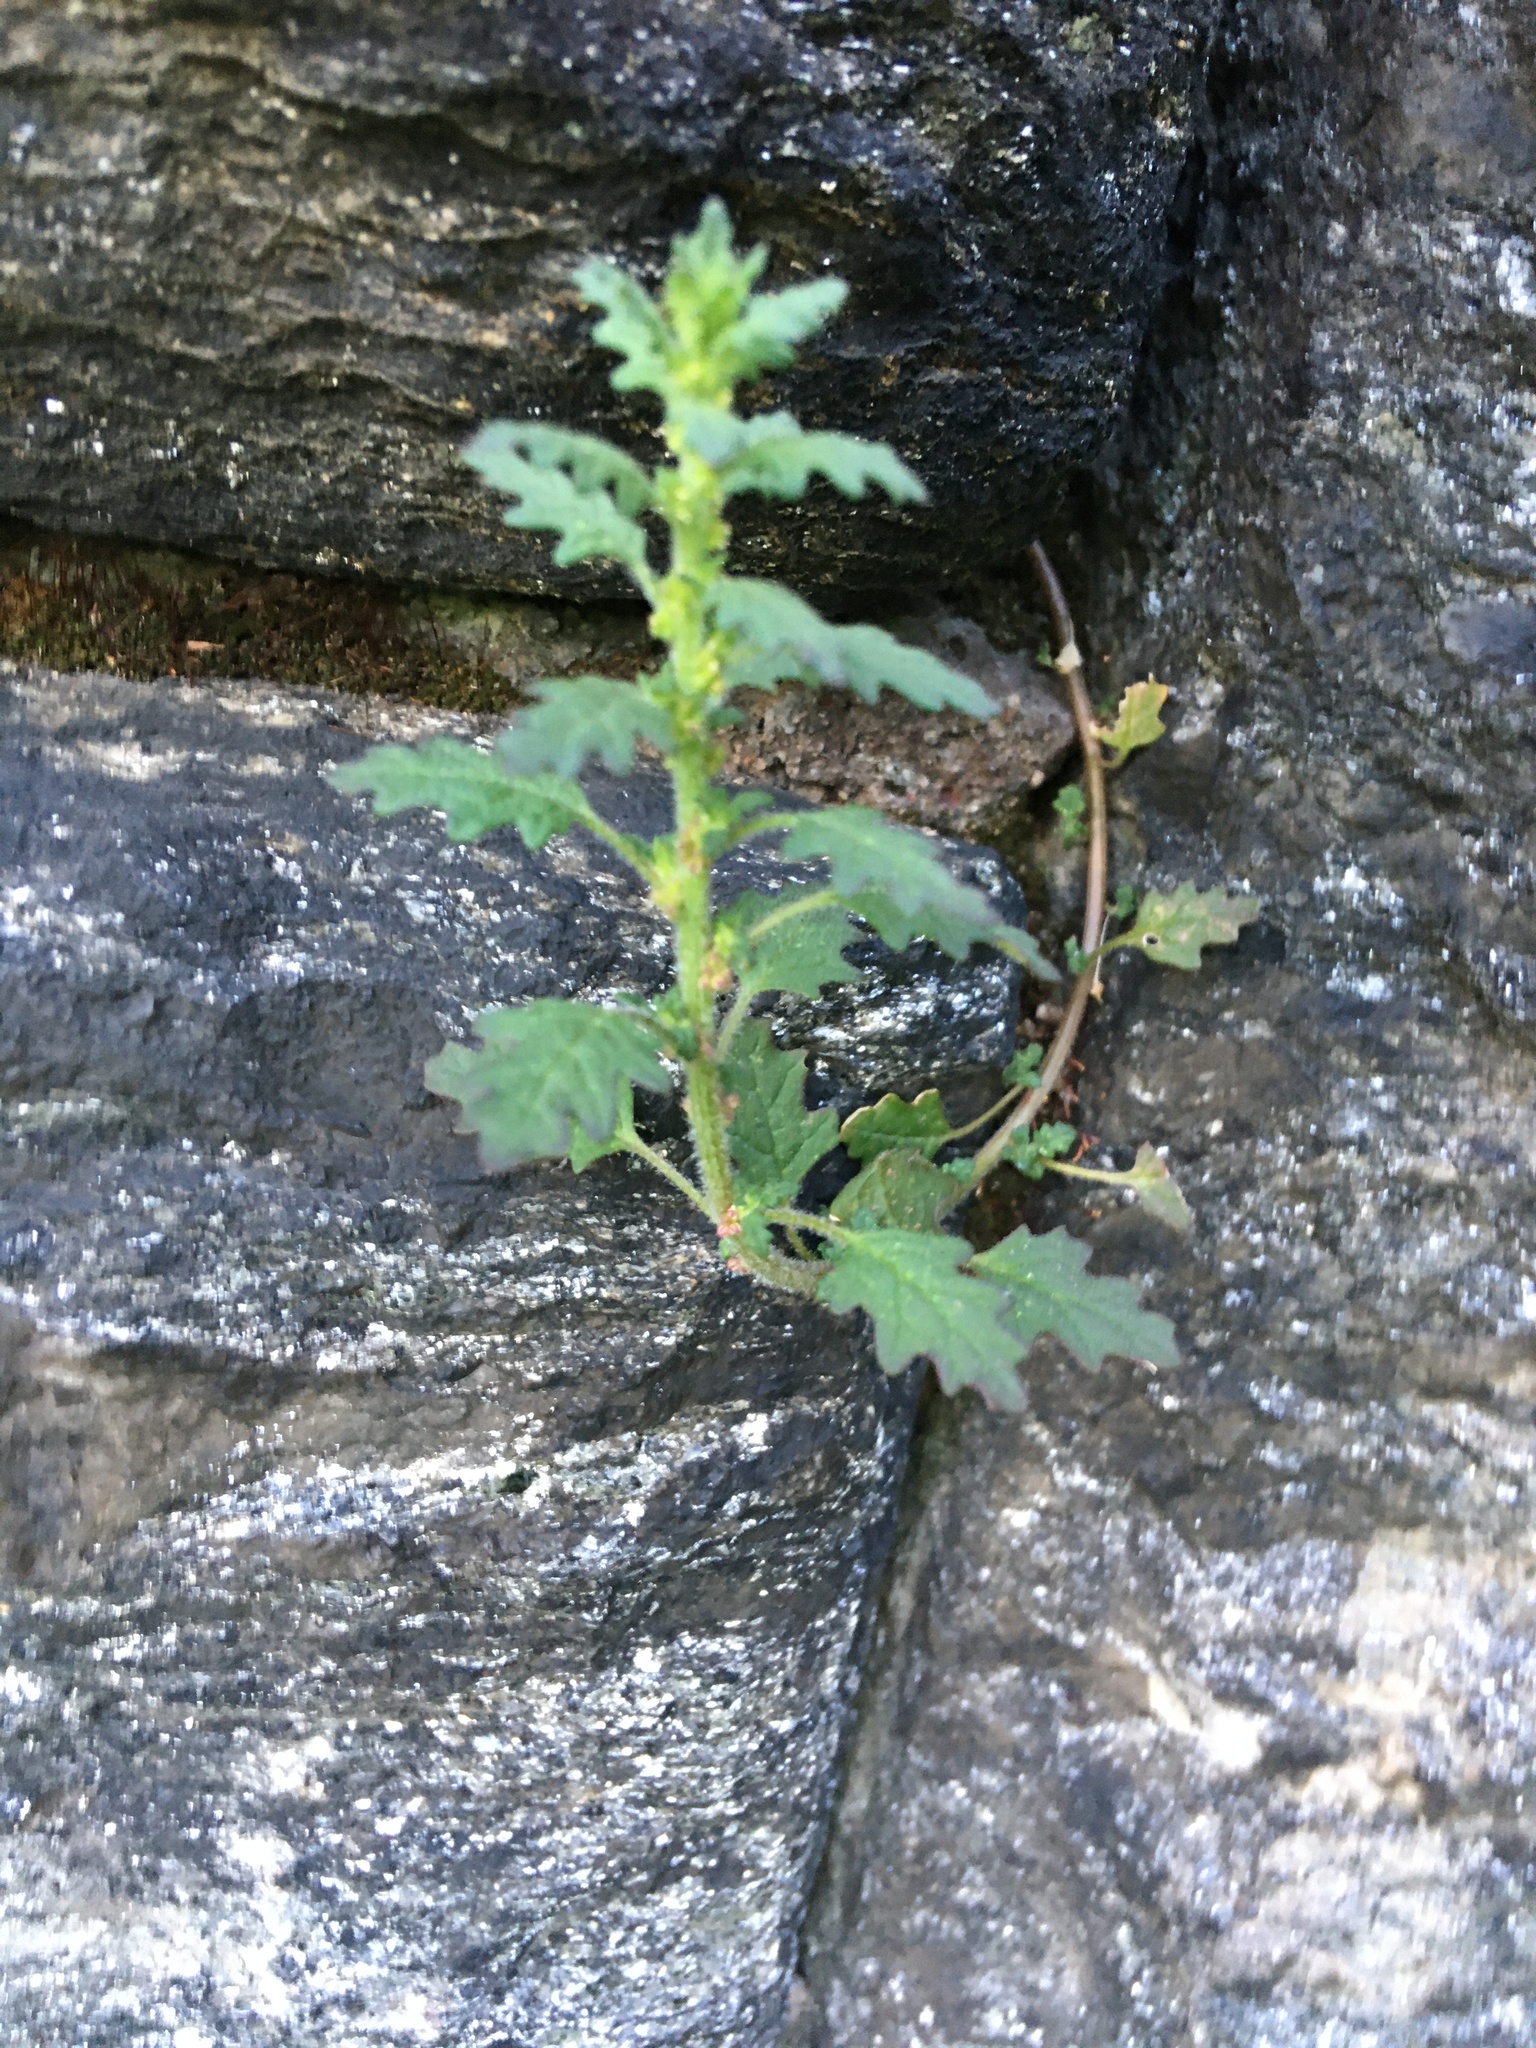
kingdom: Plantae
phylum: Tracheophyta
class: Magnoliopsida
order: Caryophyllales
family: Amaranthaceae
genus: Dysphania
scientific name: Dysphania pumilio
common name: Clammy goosefoot
